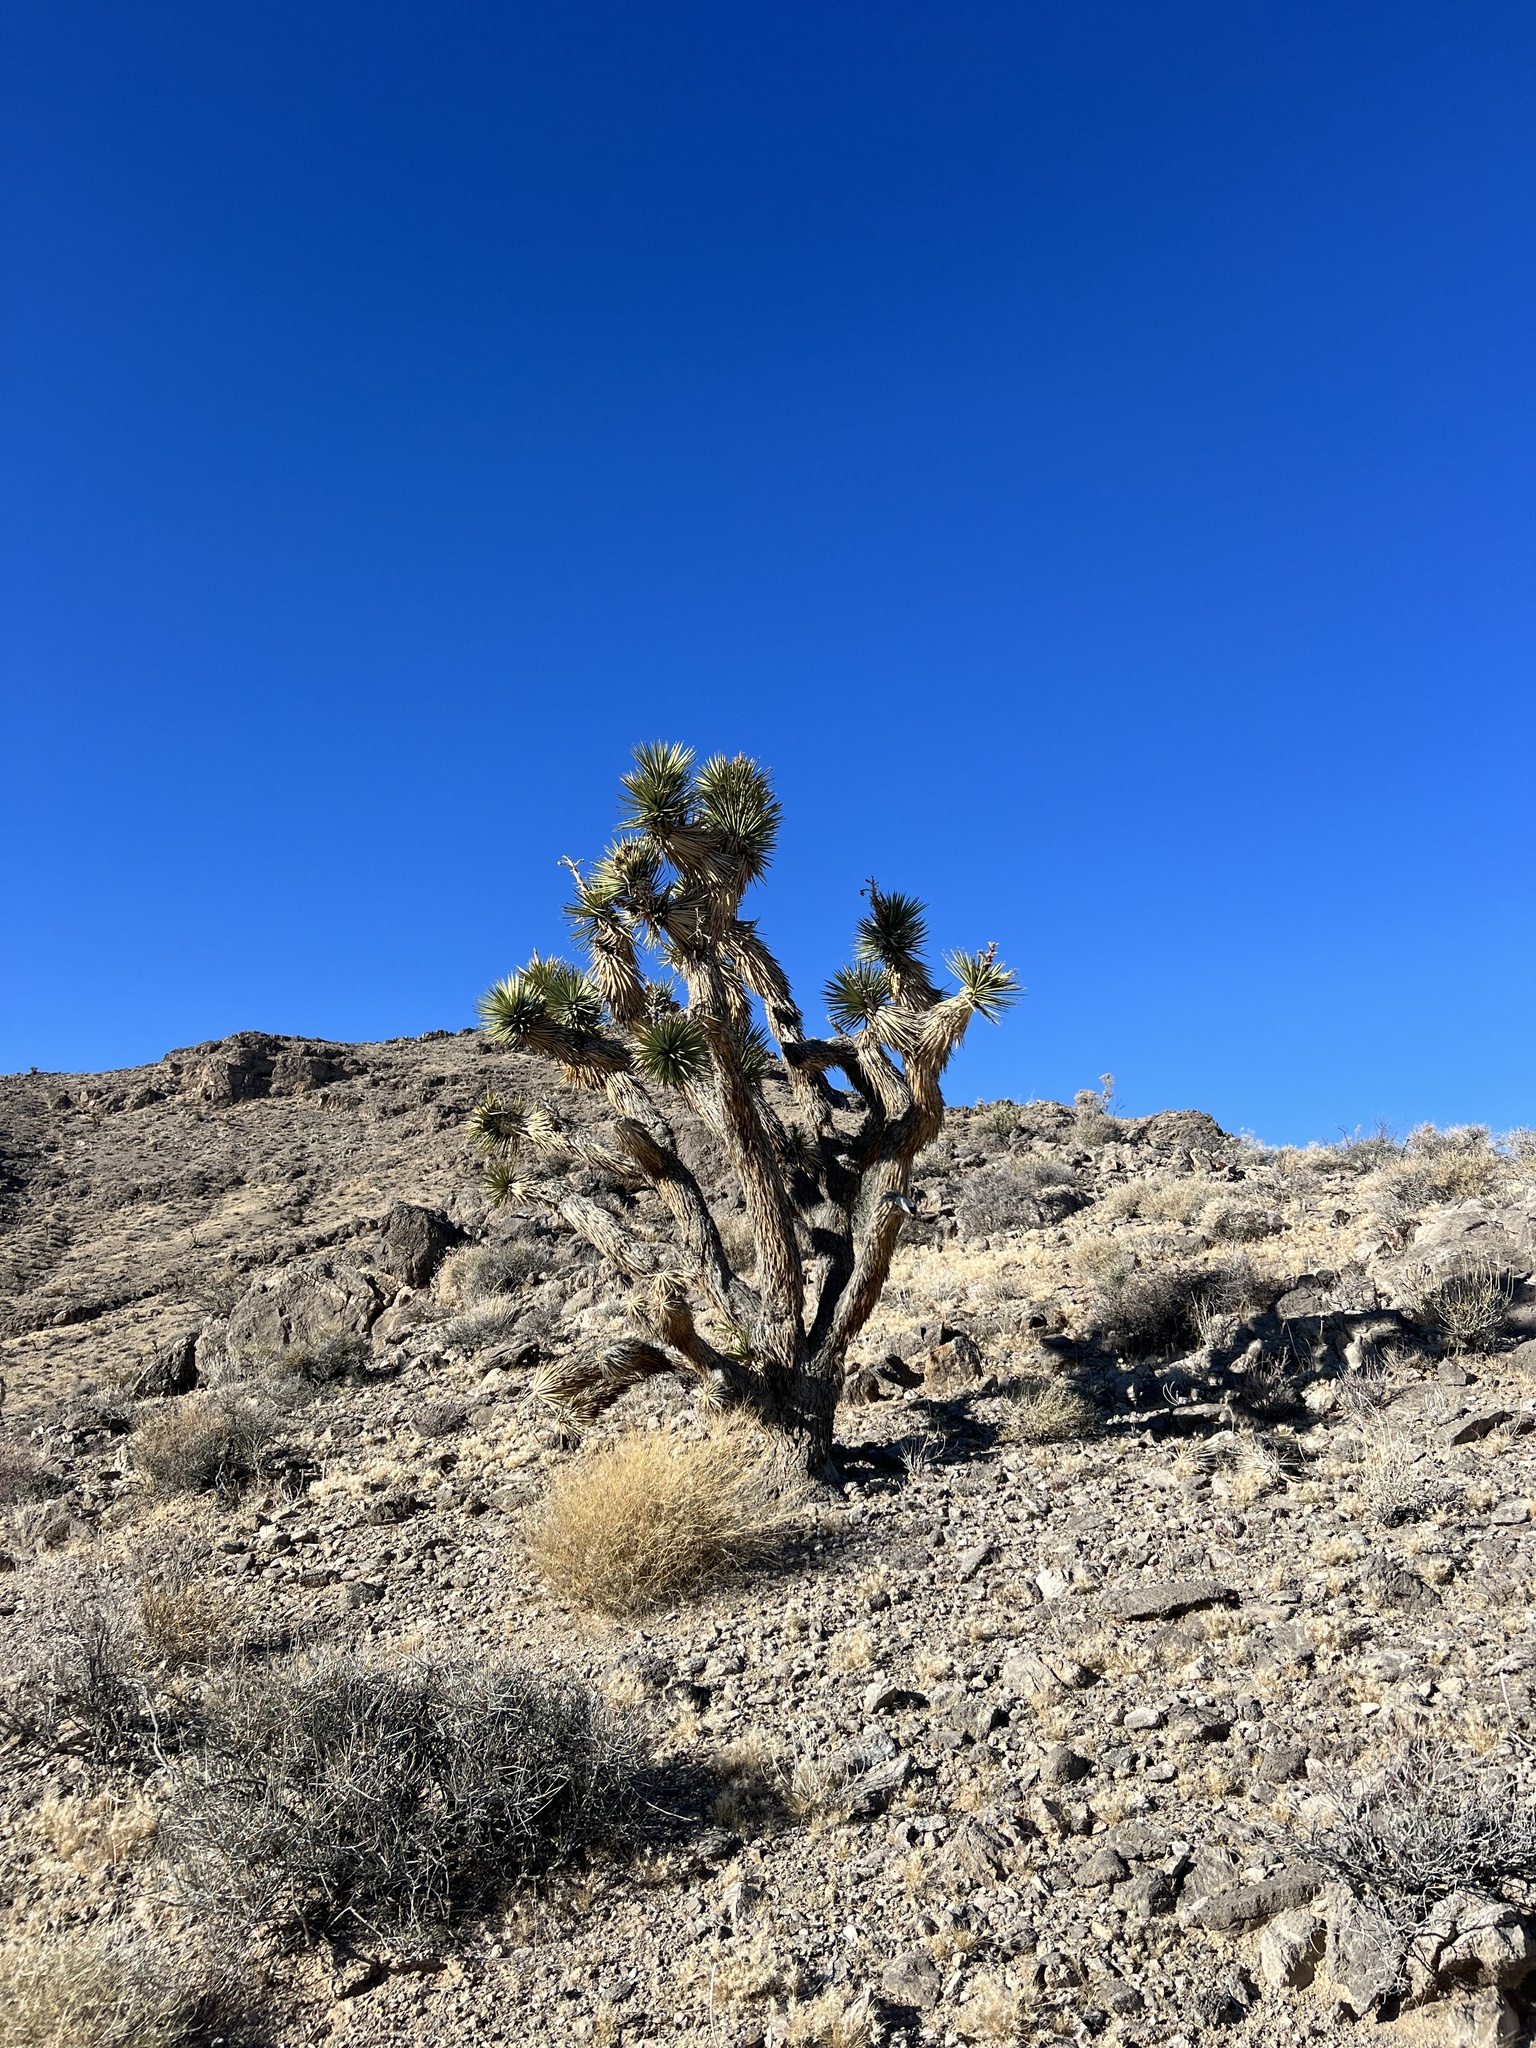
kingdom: Plantae
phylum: Tracheophyta
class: Liliopsida
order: Asparagales
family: Asparagaceae
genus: Yucca
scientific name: Yucca brevifolia
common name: Joshua tree
